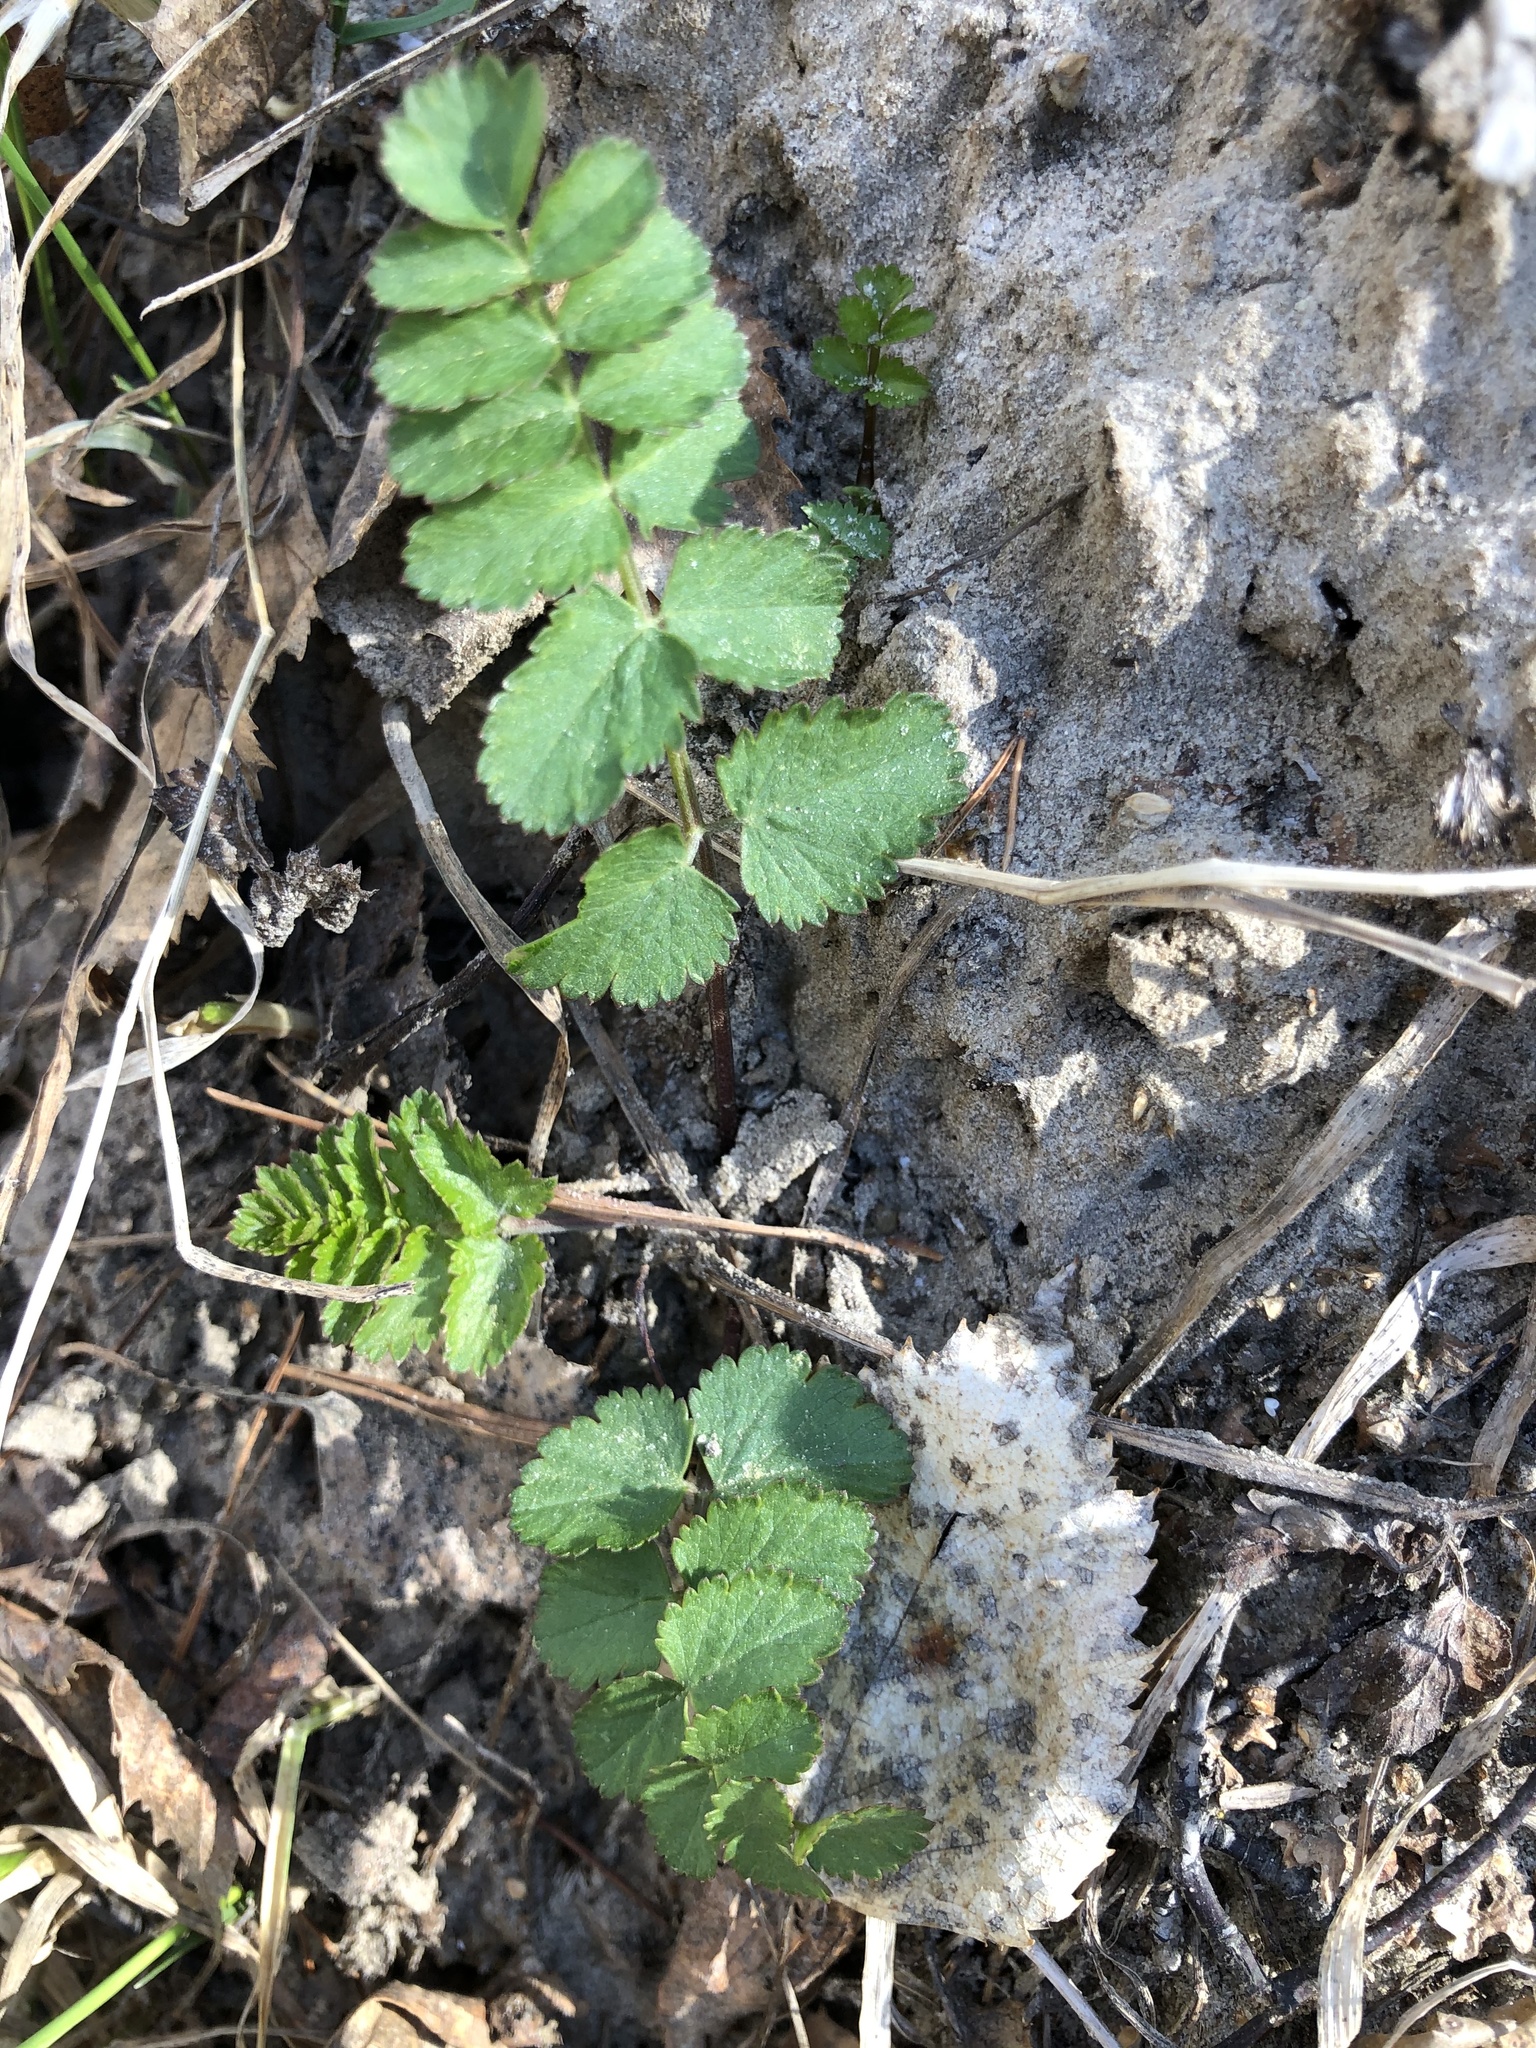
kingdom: Plantae
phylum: Tracheophyta
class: Magnoliopsida
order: Apiales
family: Apiaceae
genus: Pimpinella
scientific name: Pimpinella saxifraga
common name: Burnet-saxifrage
